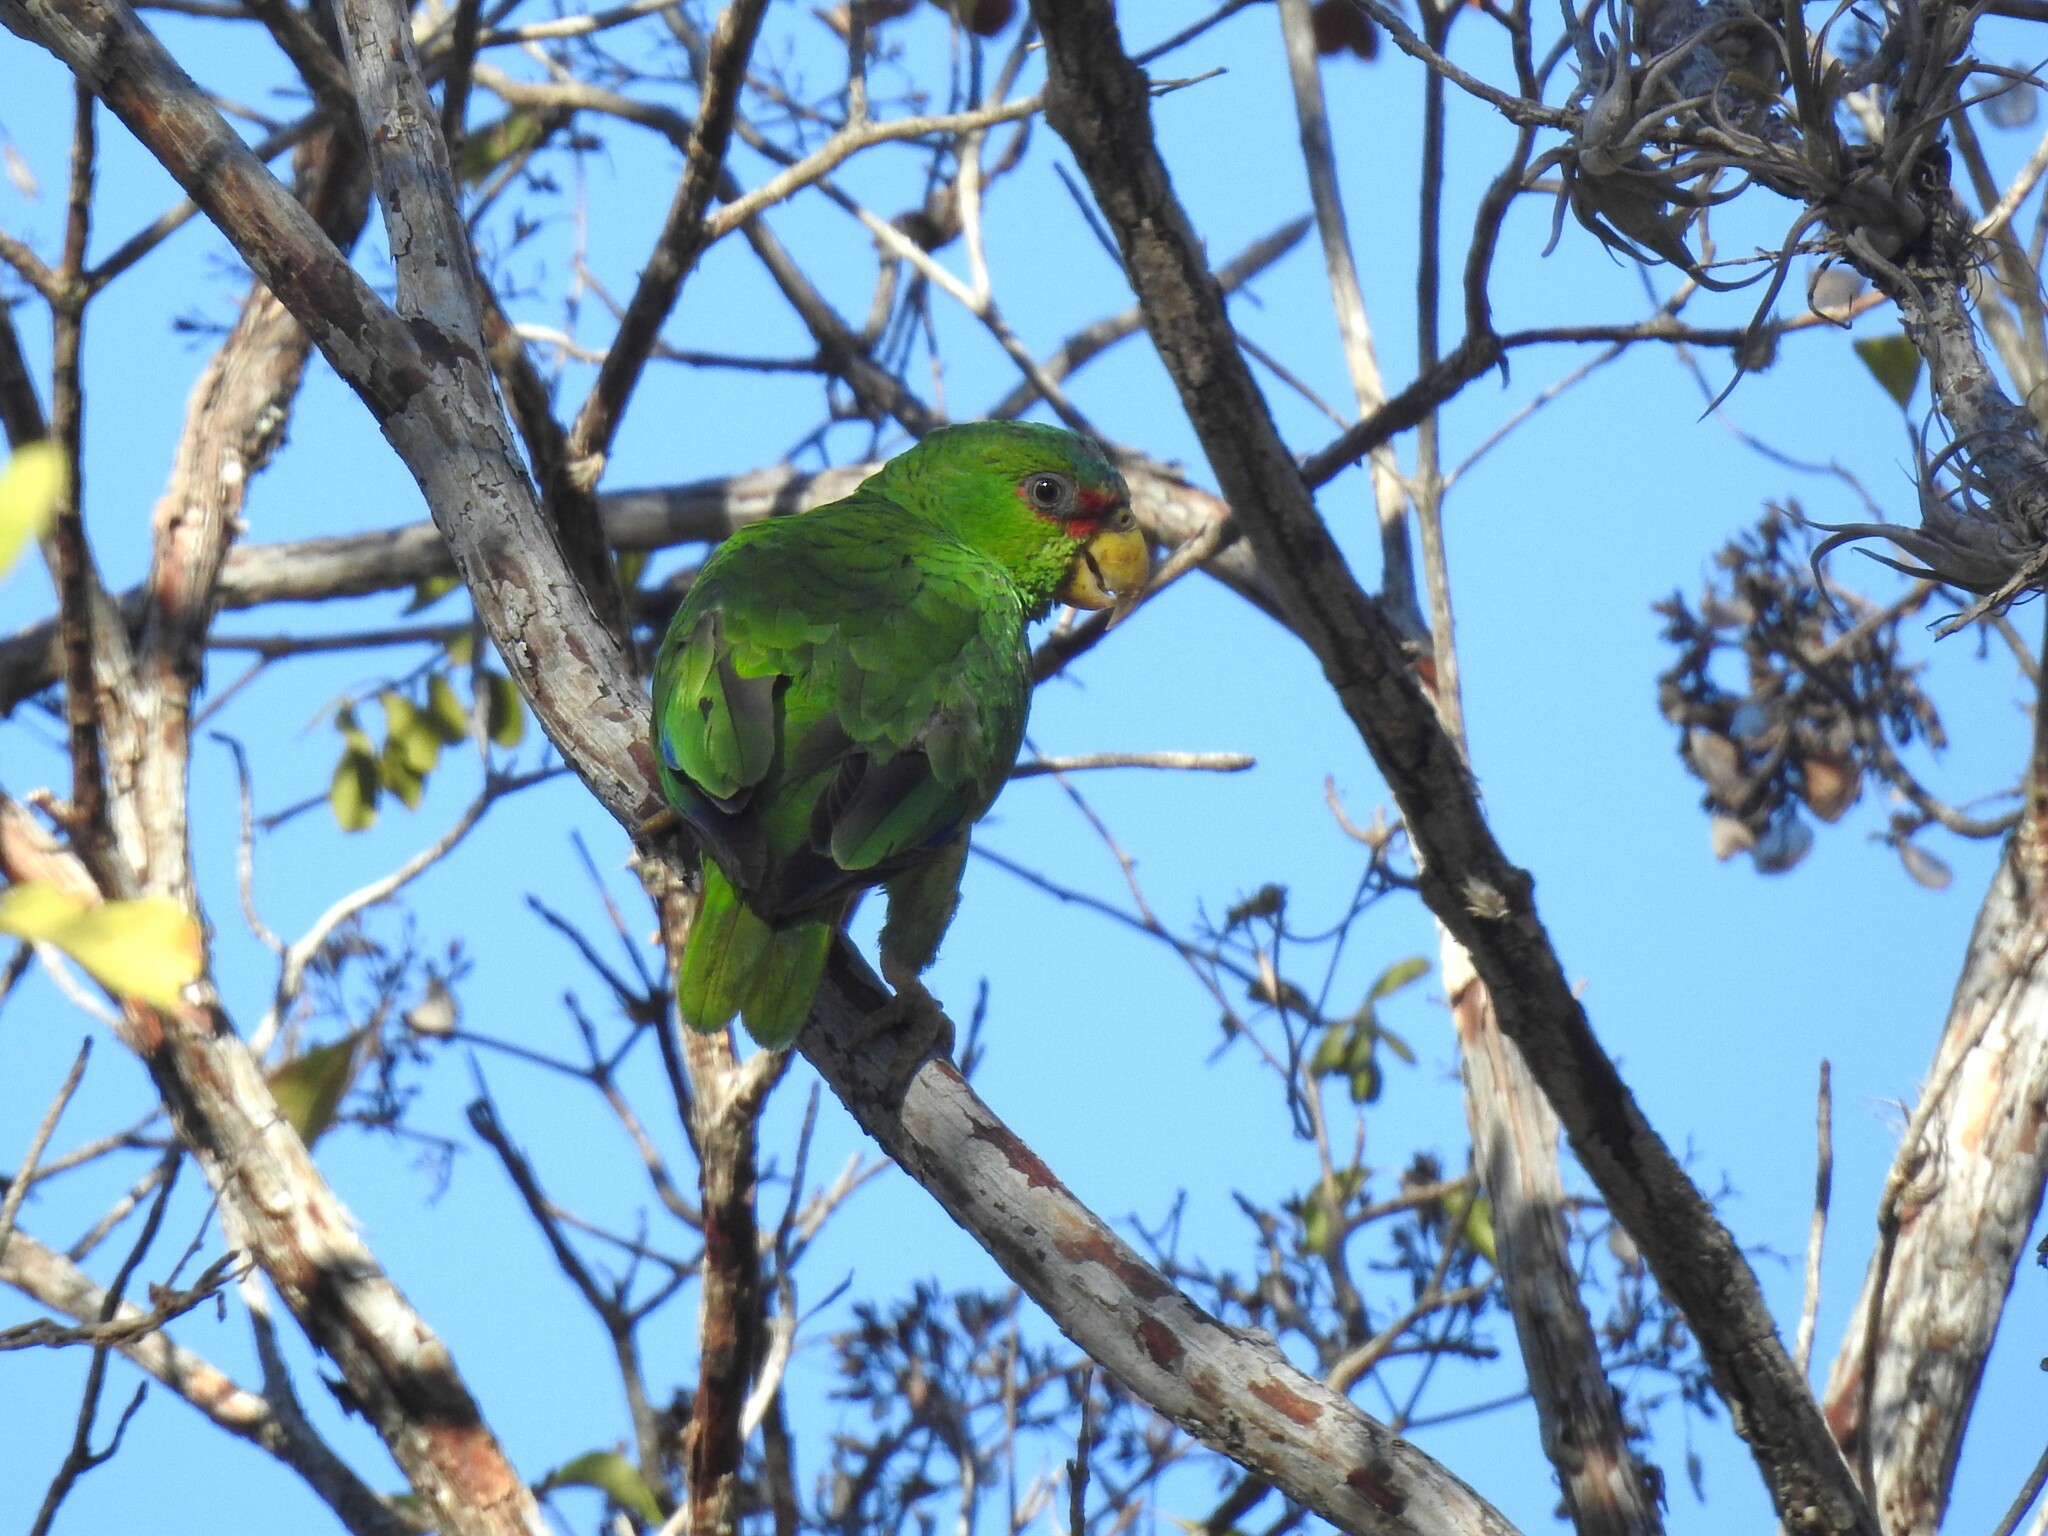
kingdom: Animalia
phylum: Chordata
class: Aves
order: Psittaciformes
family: Psittacidae
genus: Amazona
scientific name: Amazona albifrons
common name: White-fronted amazon
